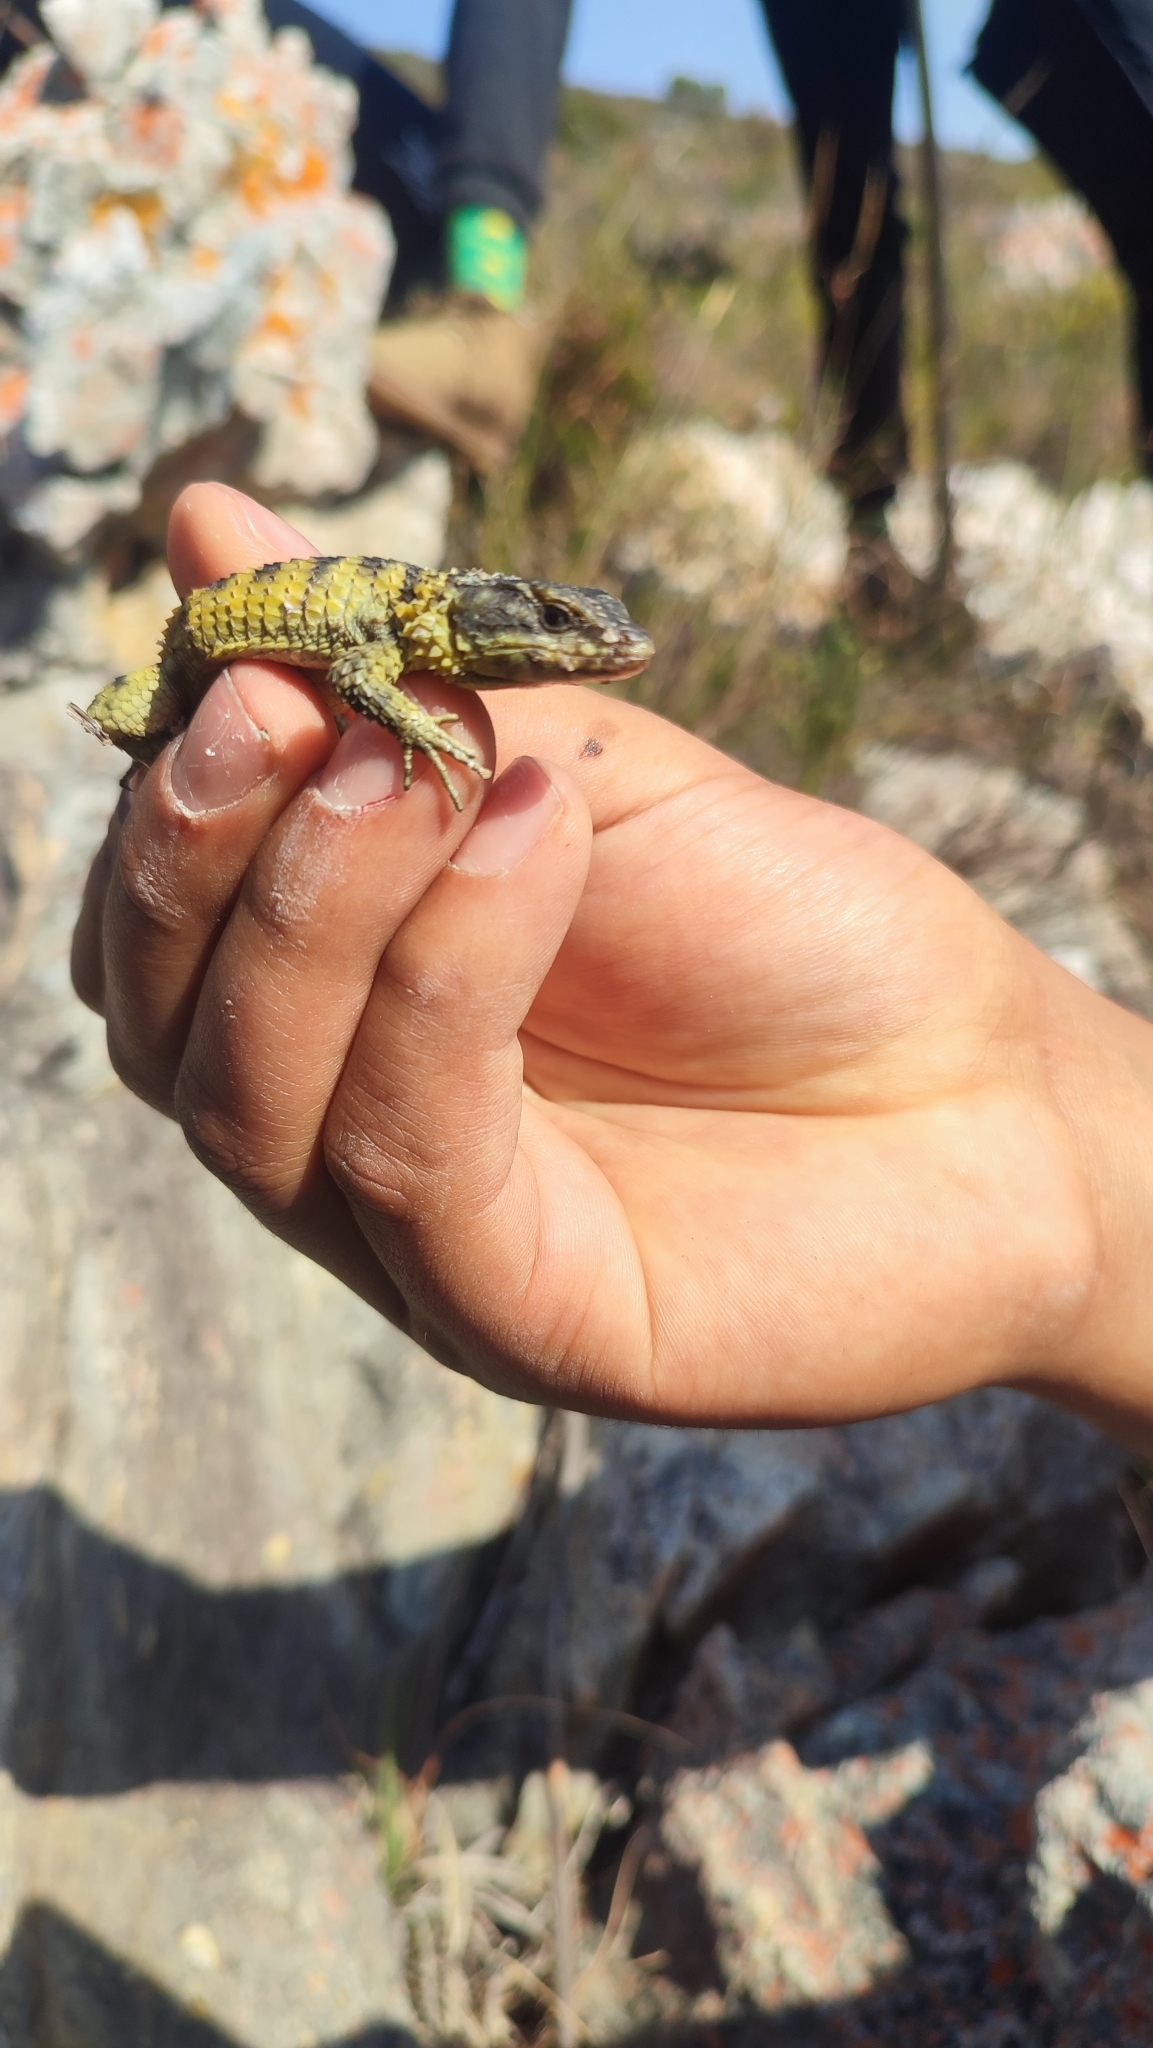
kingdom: Animalia
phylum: Chordata
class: Squamata
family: Cordylidae
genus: Cordylus
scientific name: Cordylus cordylus
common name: Cape girdled lizard
